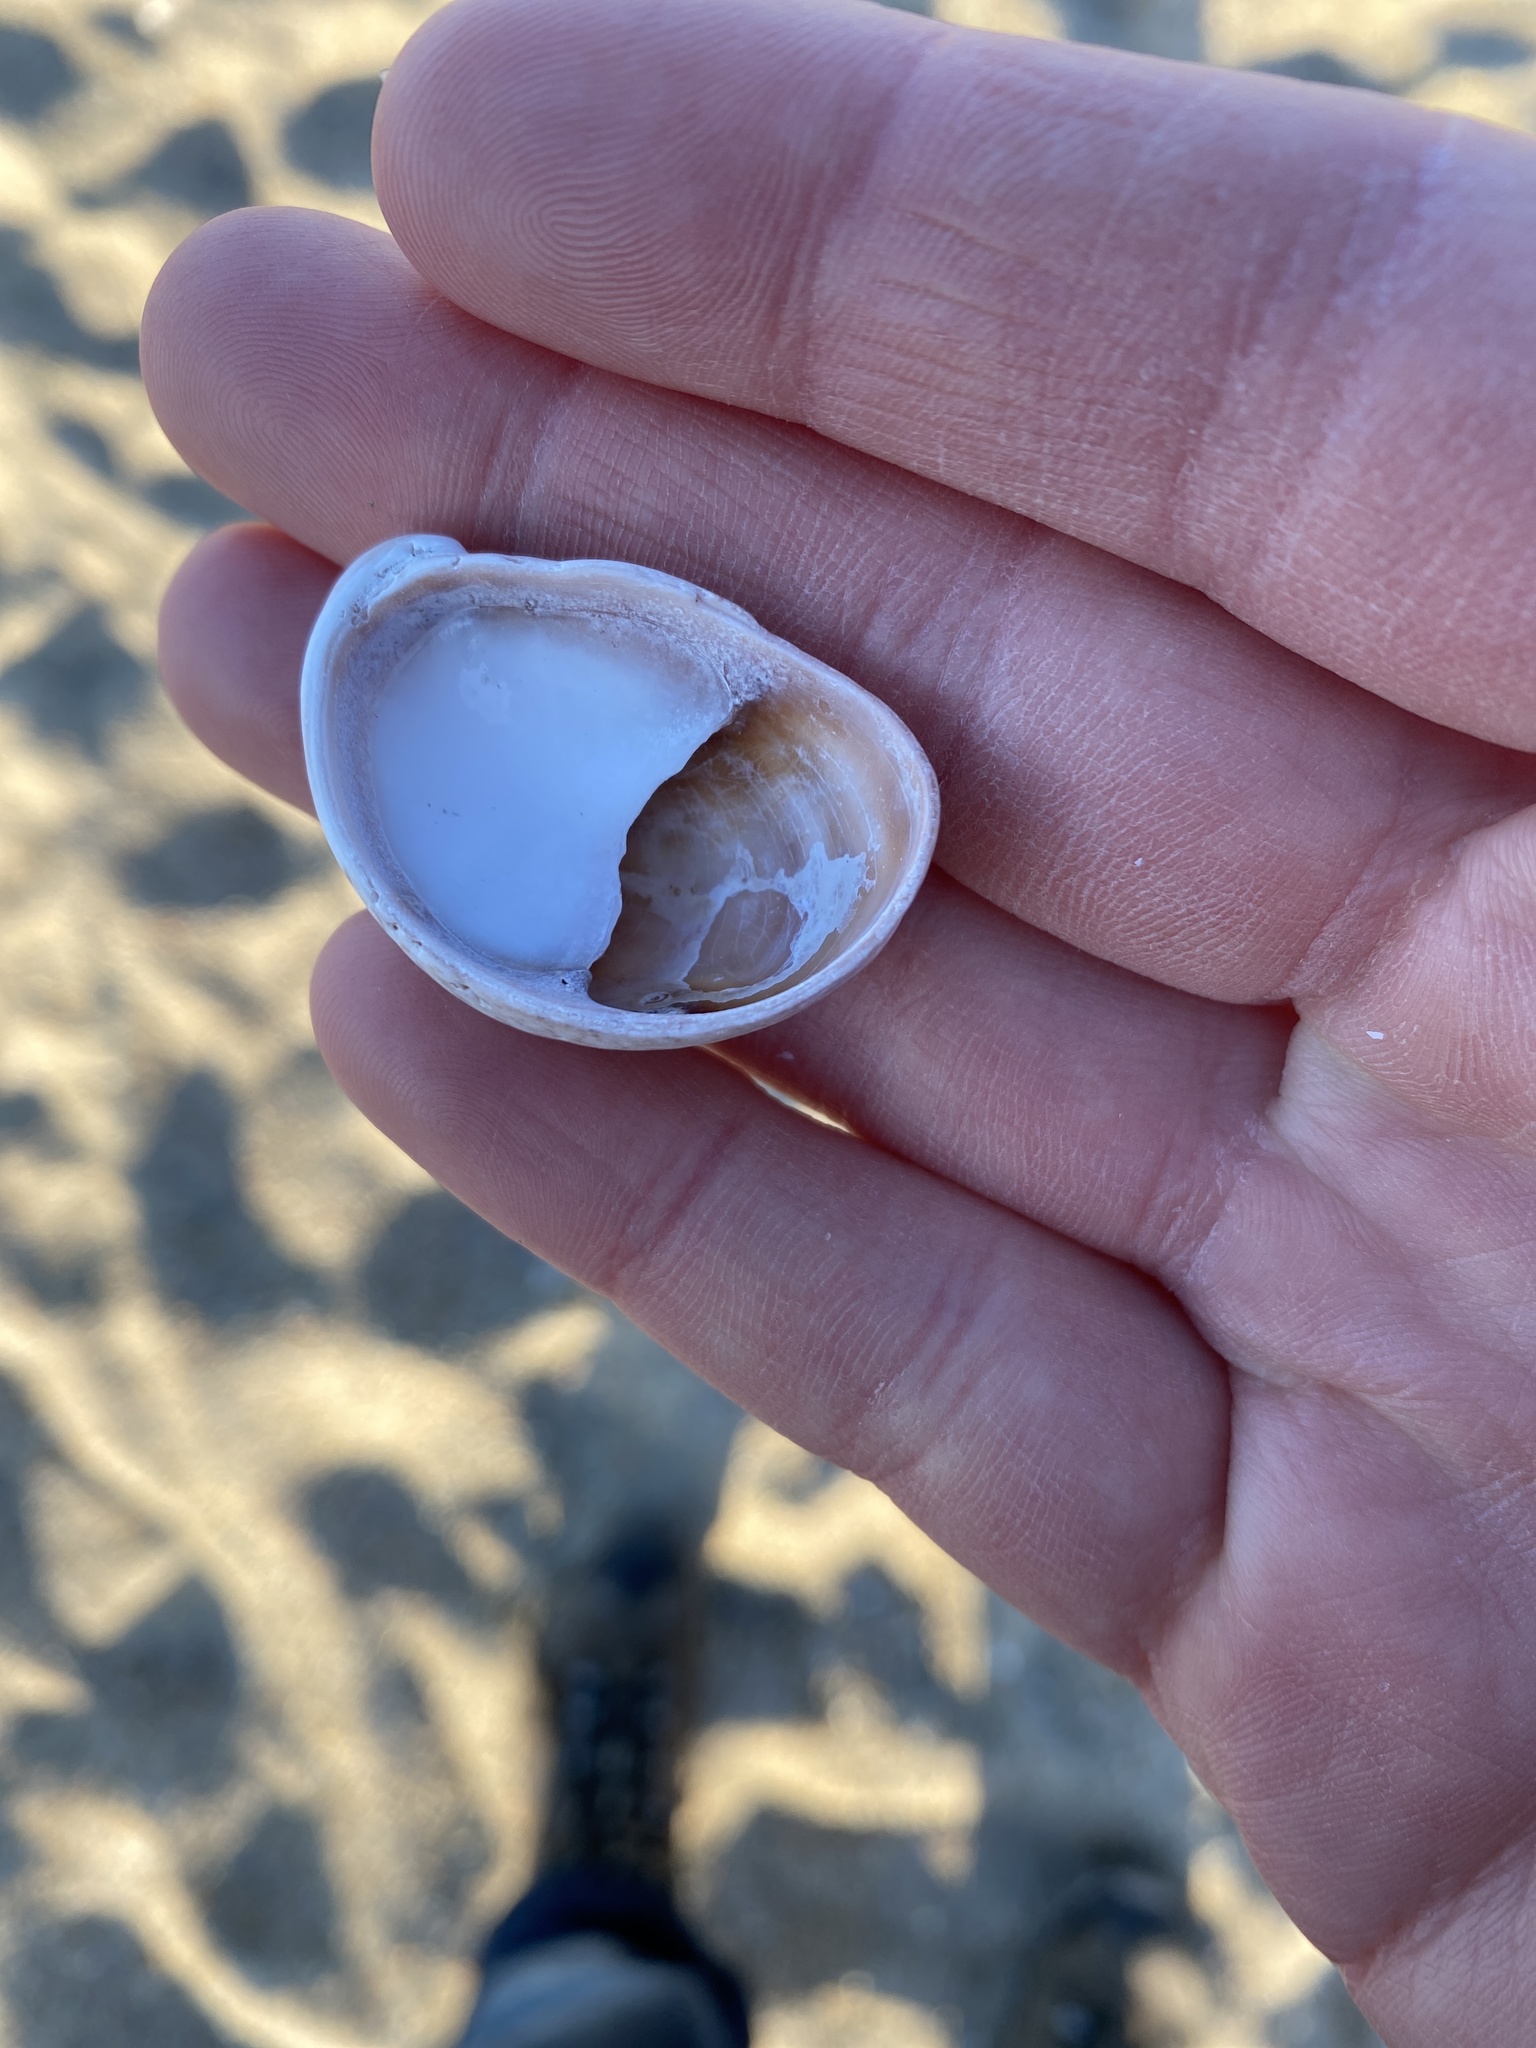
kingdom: Animalia
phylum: Mollusca
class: Gastropoda
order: Littorinimorpha
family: Calyptraeidae
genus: Crepidula
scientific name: Crepidula fornicata
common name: Slipper limpet
